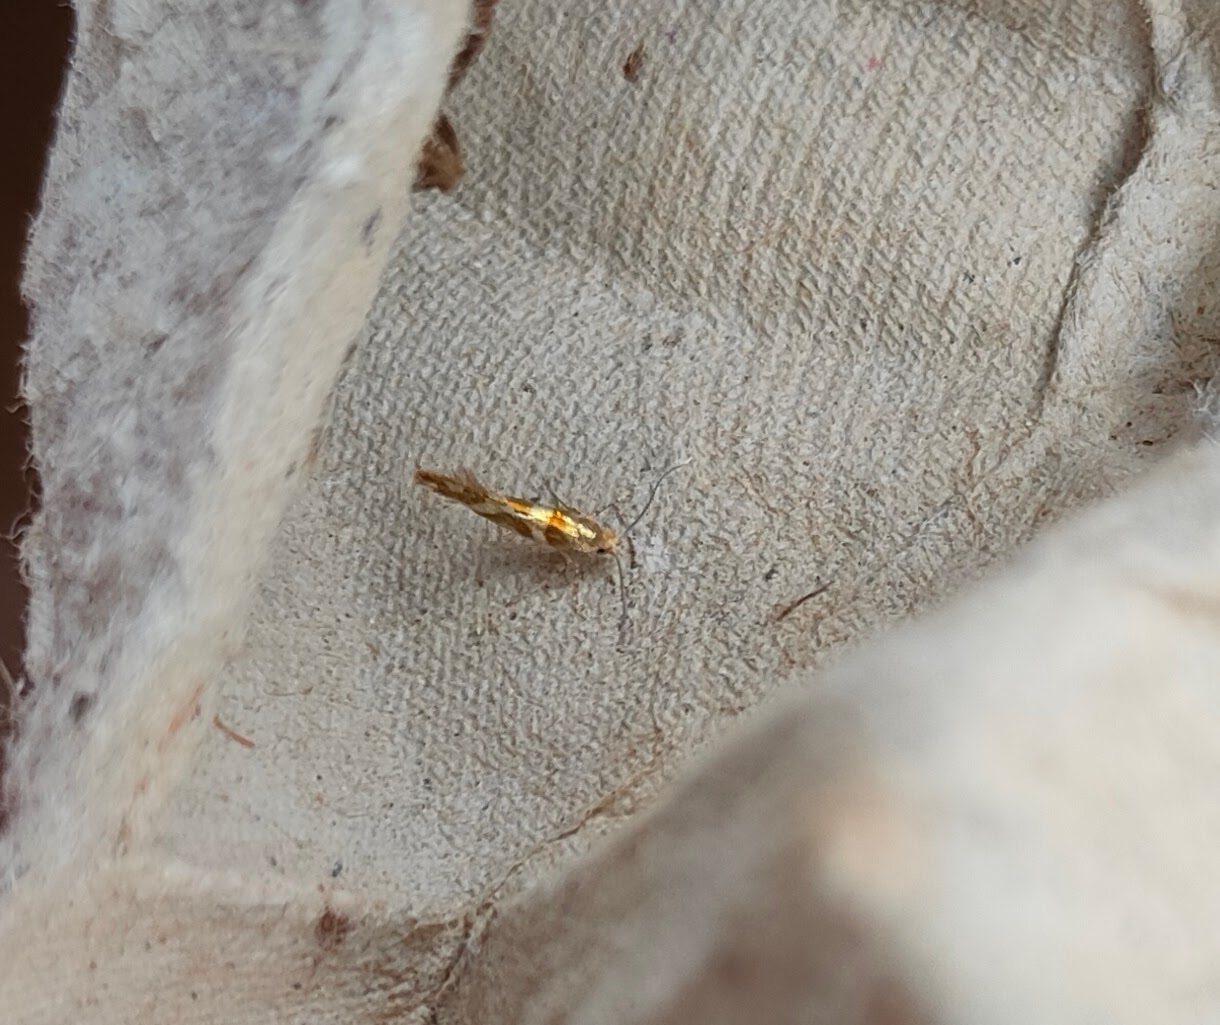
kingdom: Animalia
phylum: Arthropoda
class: Insecta
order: Lepidoptera
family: Argyresthiidae
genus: Argyresthia
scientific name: Argyresthia goedartella
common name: Golden argent
